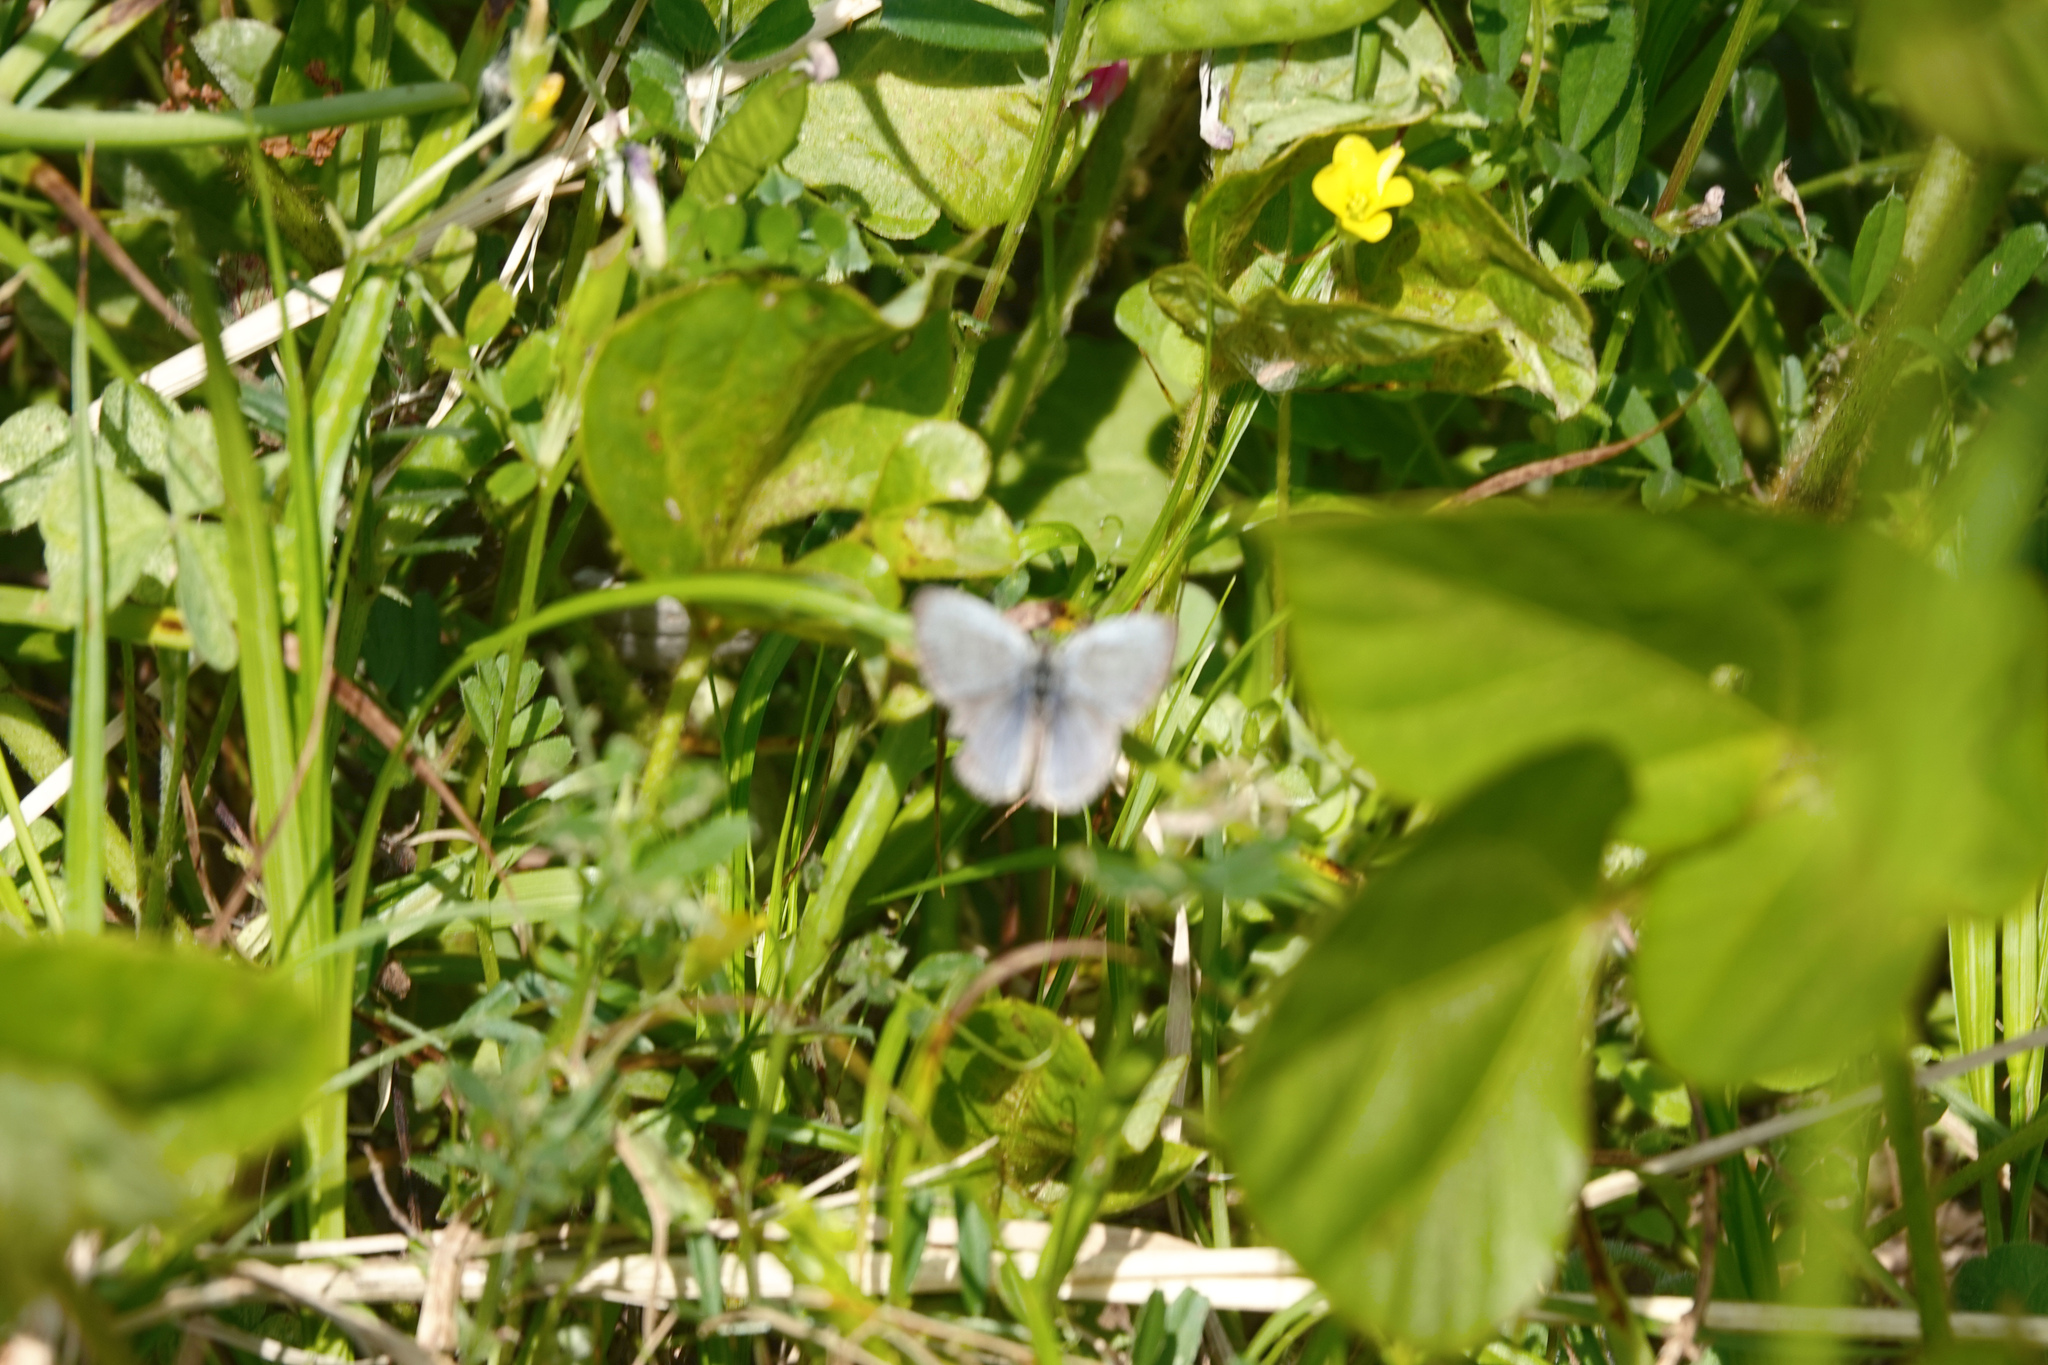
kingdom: Animalia
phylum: Arthropoda
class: Insecta
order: Lepidoptera
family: Lycaenidae
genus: Pseudozizeeria
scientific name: Pseudozizeeria maha
